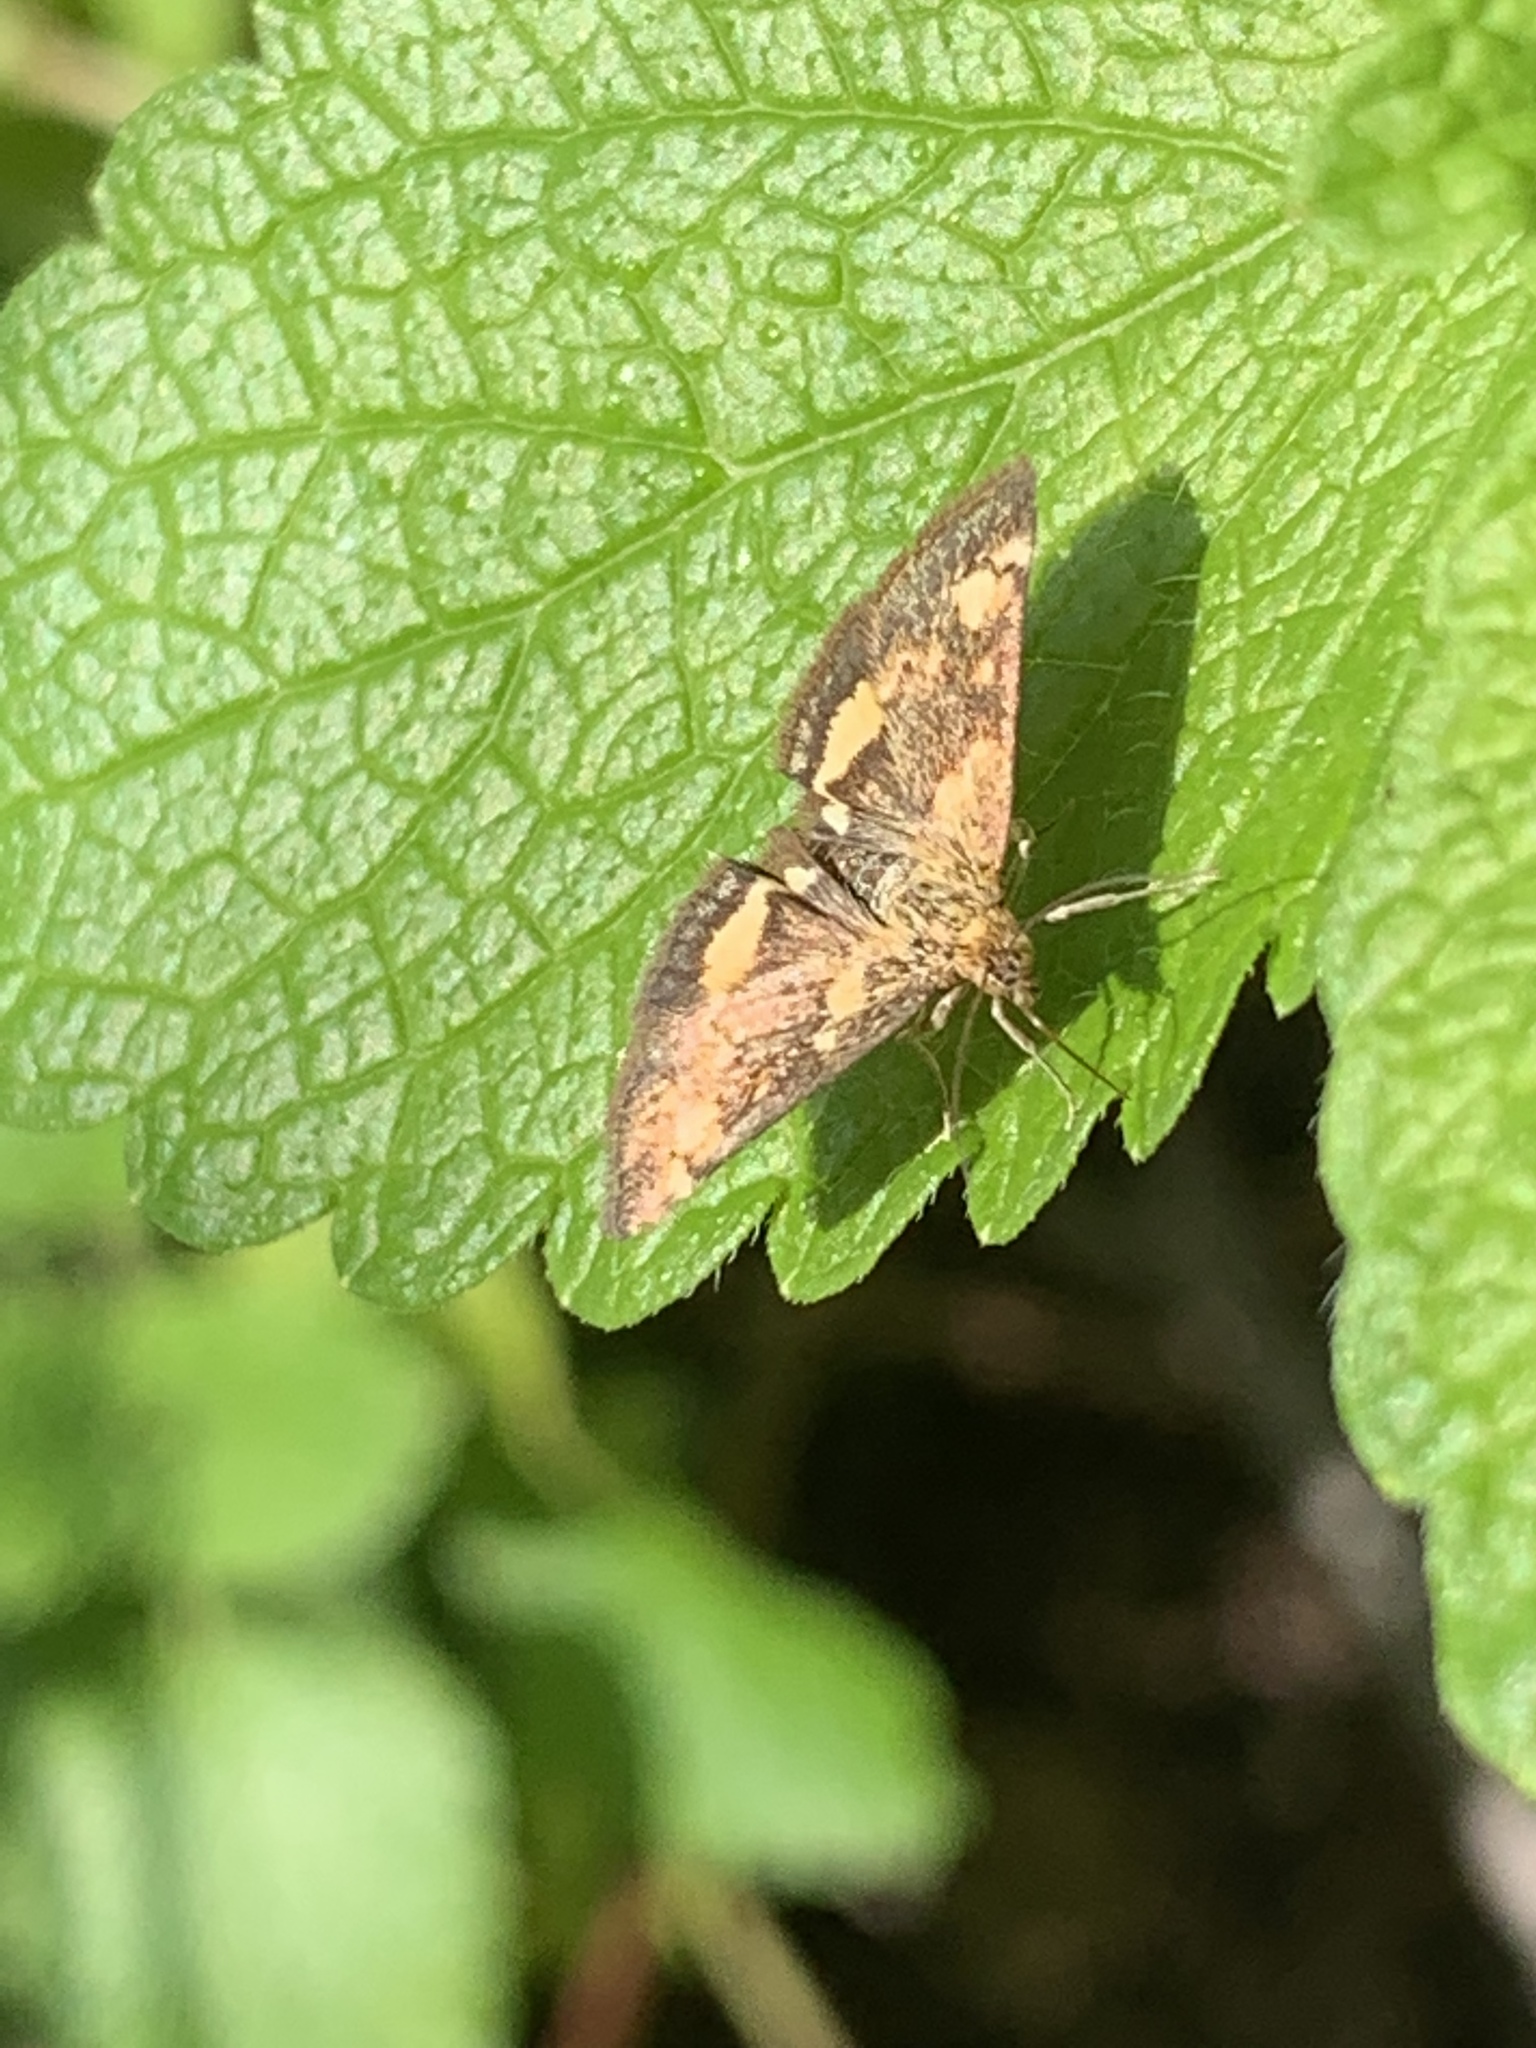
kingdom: Animalia
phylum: Arthropoda
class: Insecta
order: Lepidoptera
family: Crambidae
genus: Pyrausta
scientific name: Pyrausta orphisalis
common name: Orange mint moth
